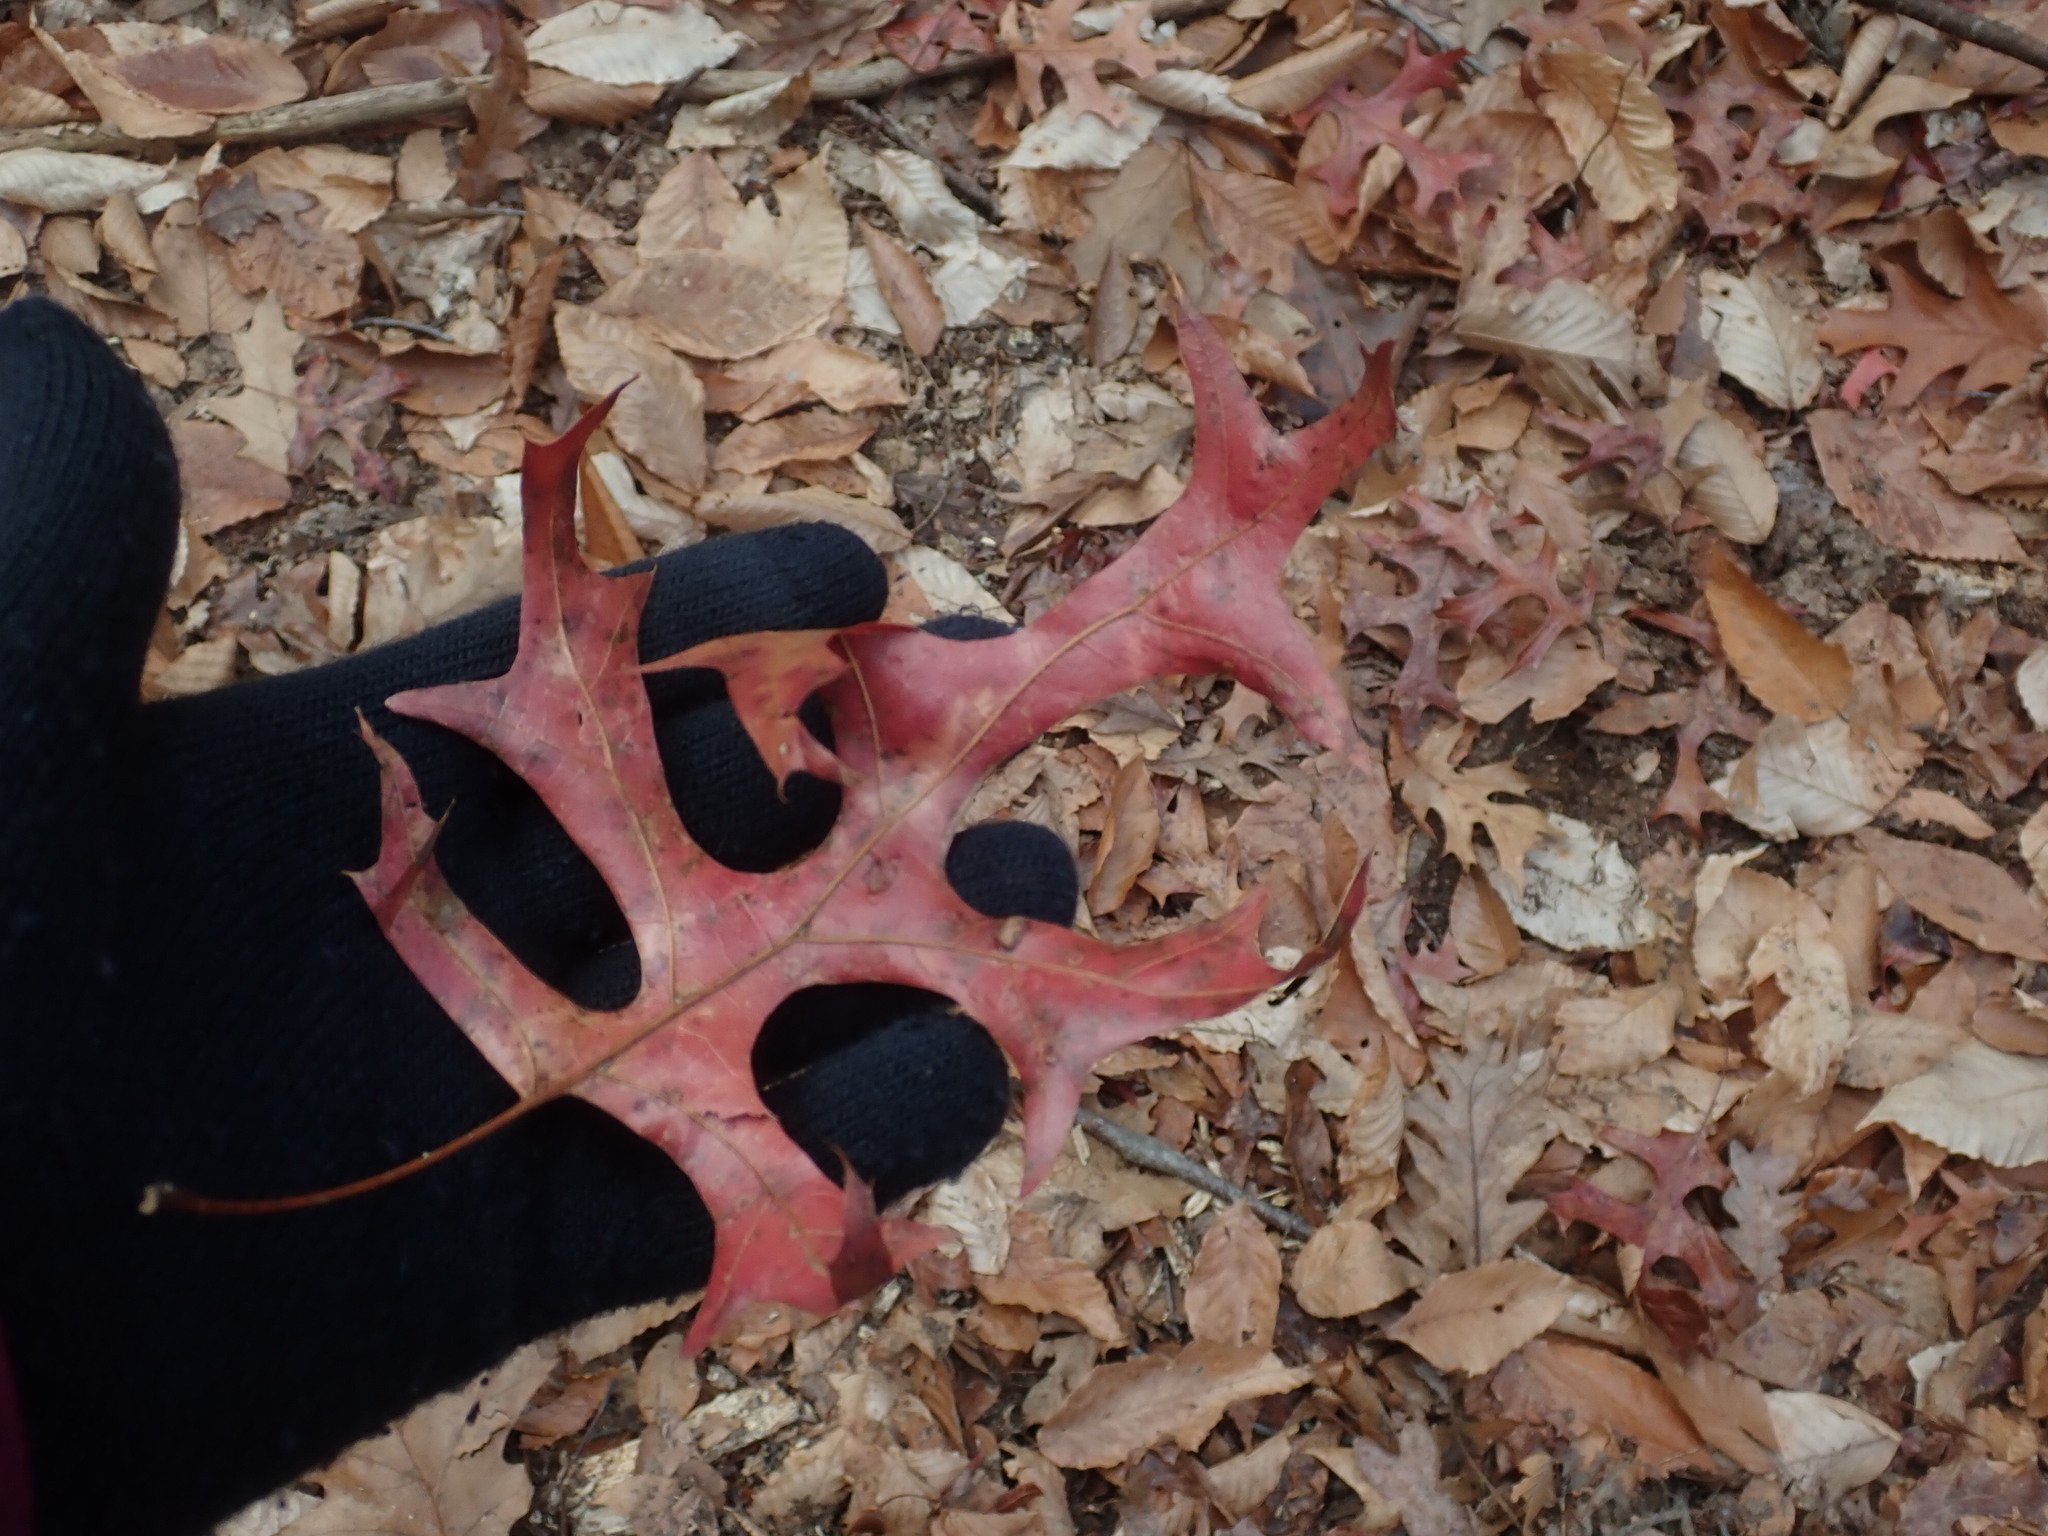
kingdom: Plantae
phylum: Tracheophyta
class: Magnoliopsida
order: Fagales
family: Fagaceae
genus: Quercus
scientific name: Quercus coccinea
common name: Scarlet oak
